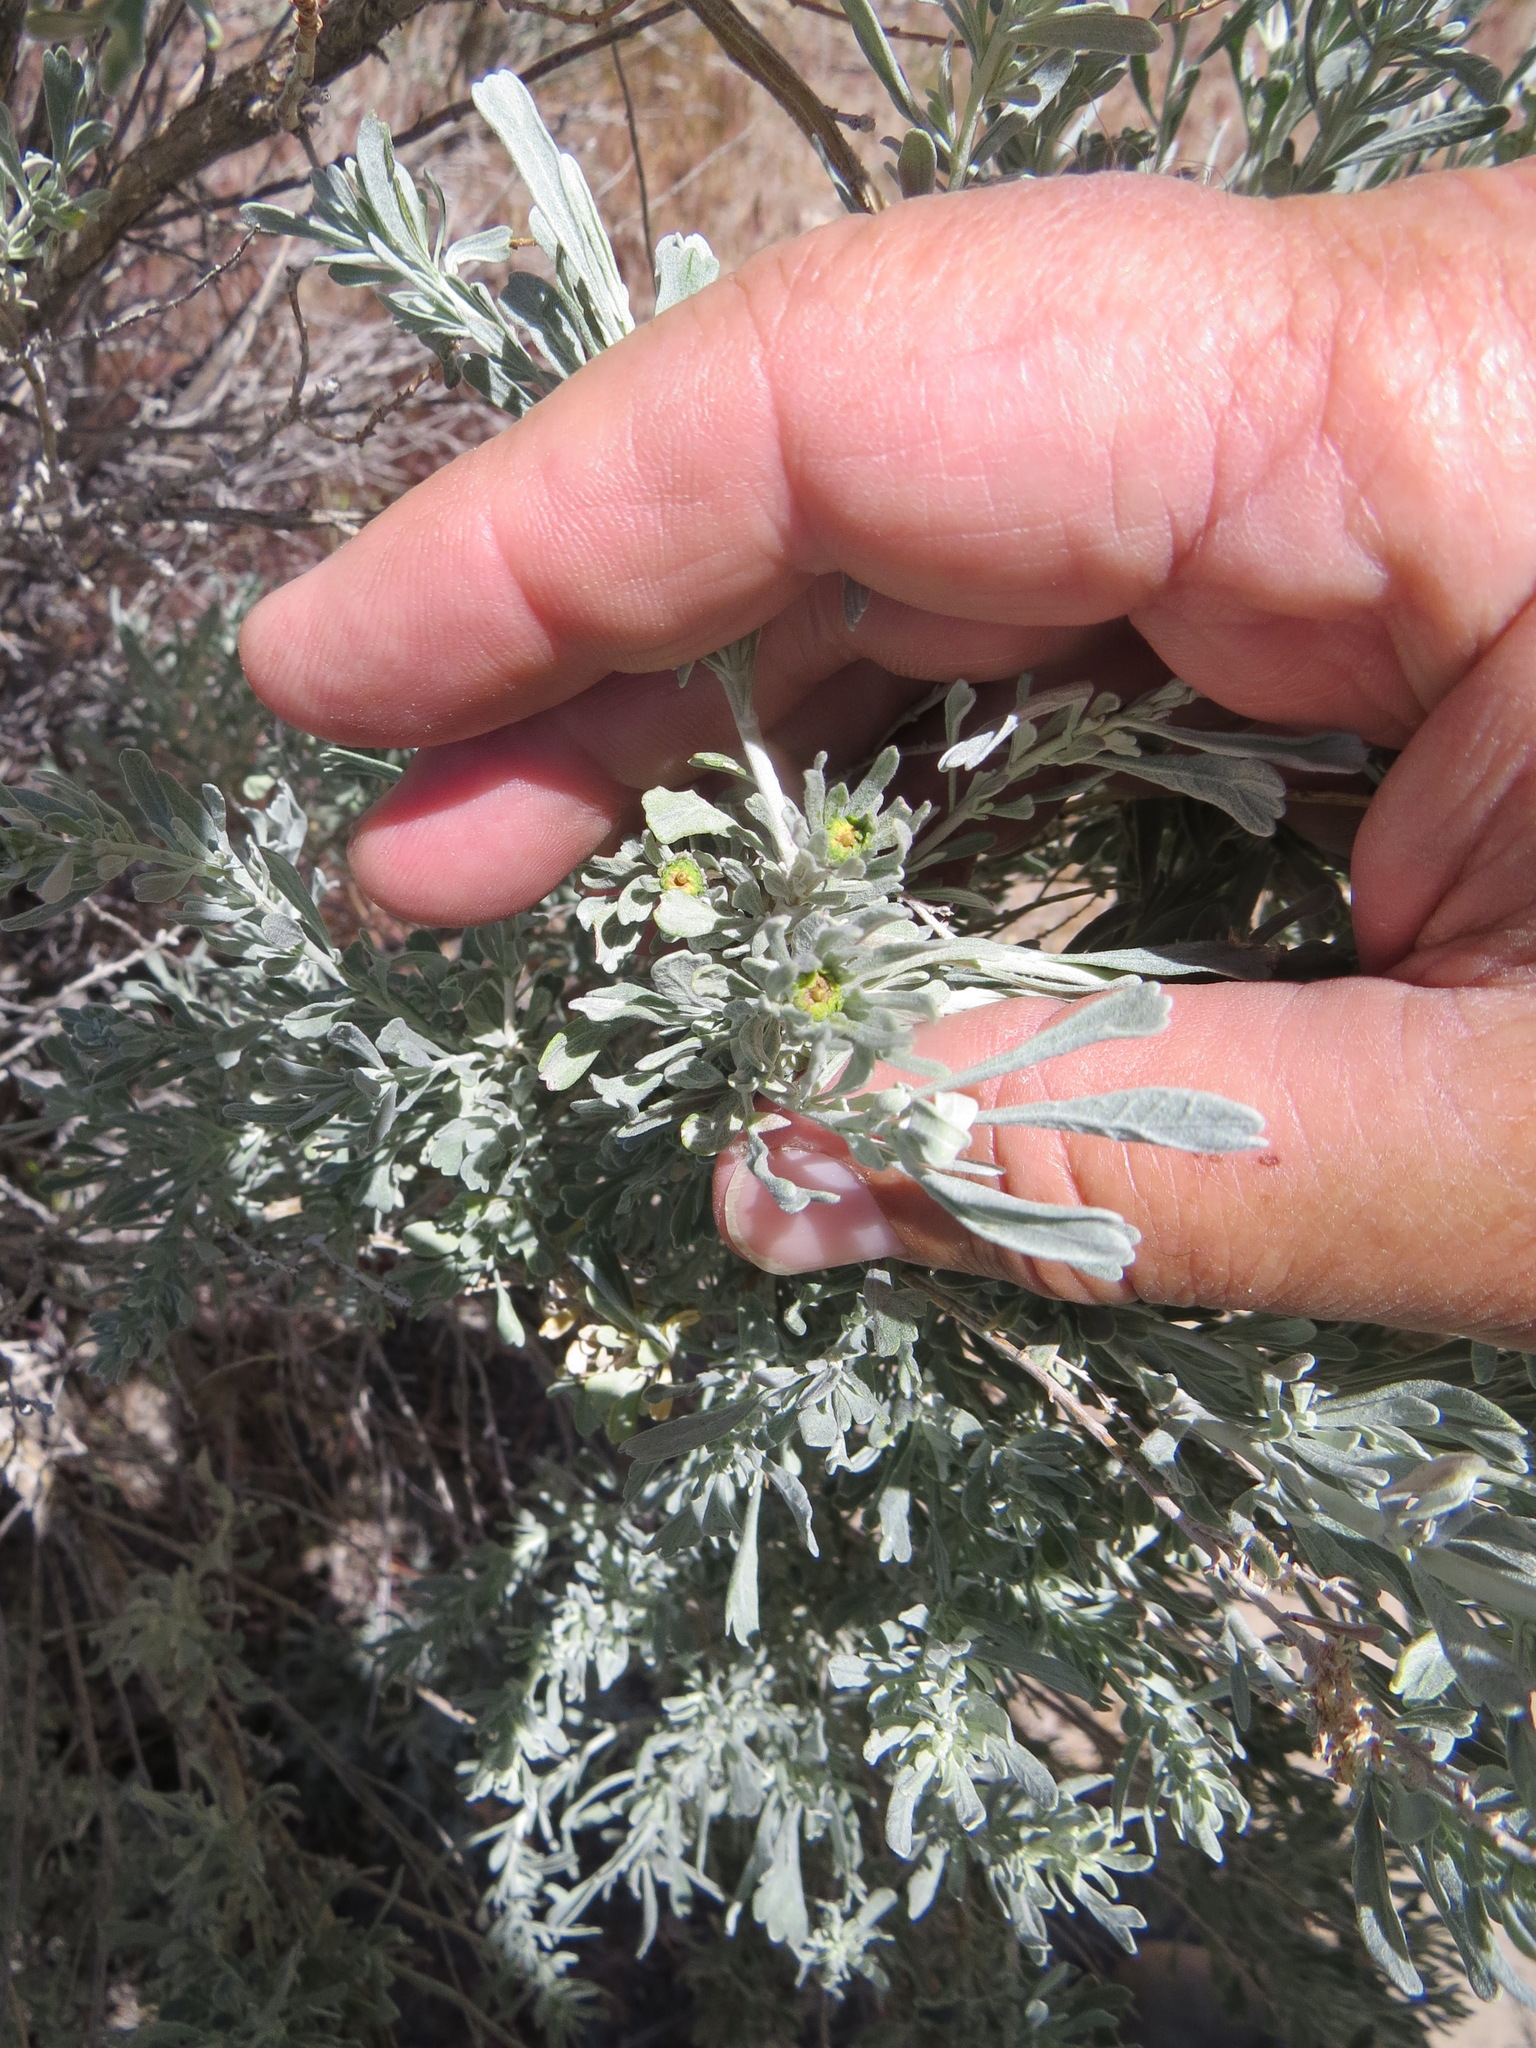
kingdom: Animalia
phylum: Arthropoda
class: Insecta
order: Diptera
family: Cecidomyiidae
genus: Rhopalomyia
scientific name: Rhopalomyia conica
